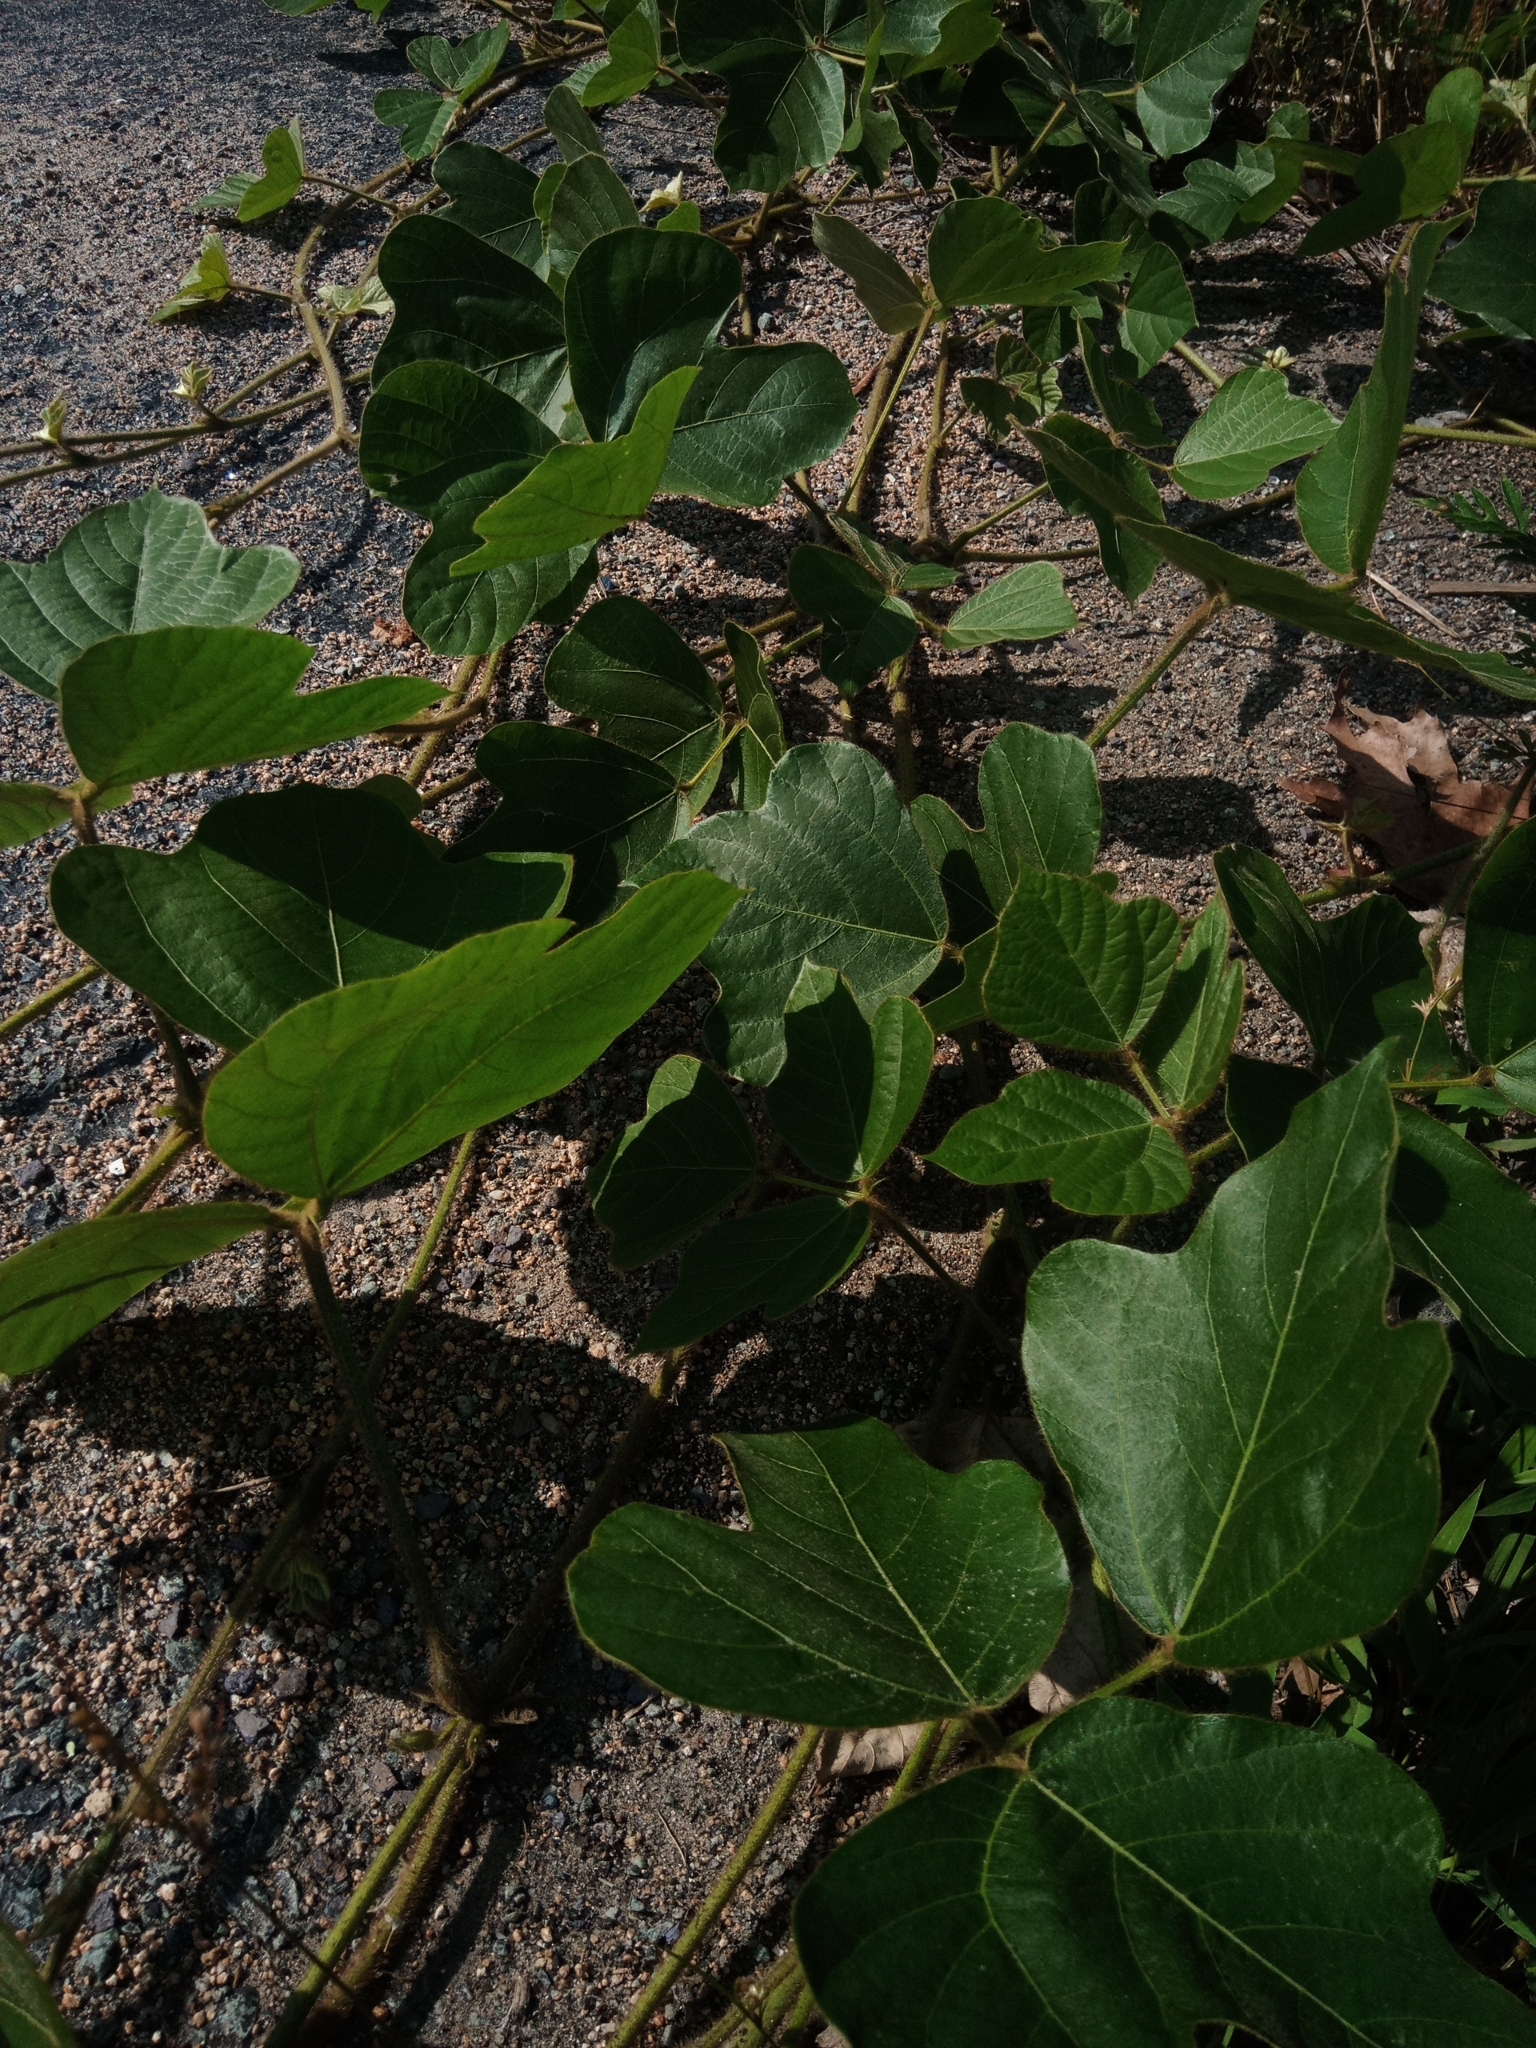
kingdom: Plantae
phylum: Tracheophyta
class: Magnoliopsida
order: Fabales
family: Fabaceae
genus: Pueraria
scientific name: Pueraria montana
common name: Kudzu
